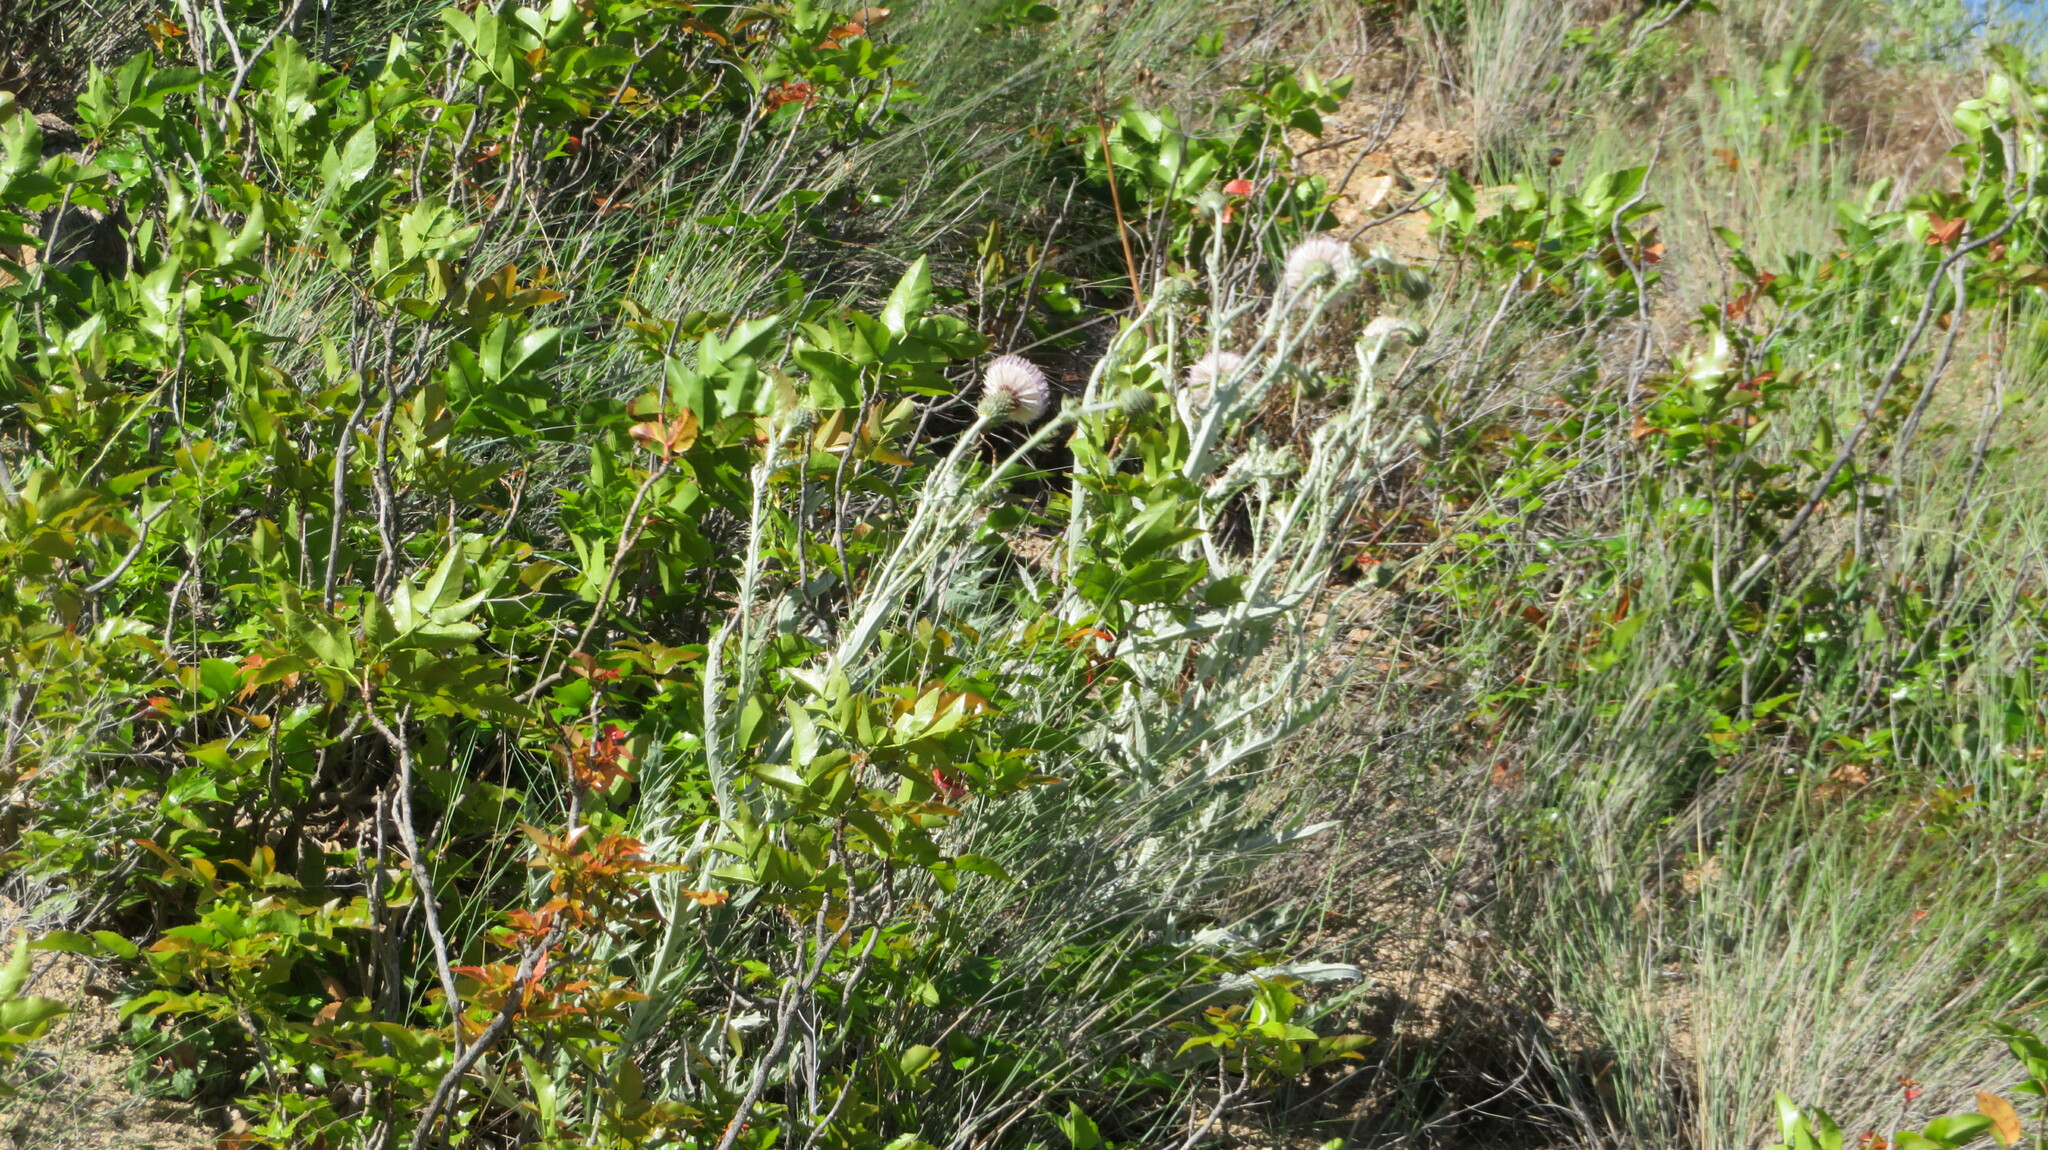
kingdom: Plantae
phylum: Tracheophyta
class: Magnoliopsida
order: Asterales
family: Asteraceae
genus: Cirsium
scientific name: Cirsium undulatum
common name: Pasture thistle
